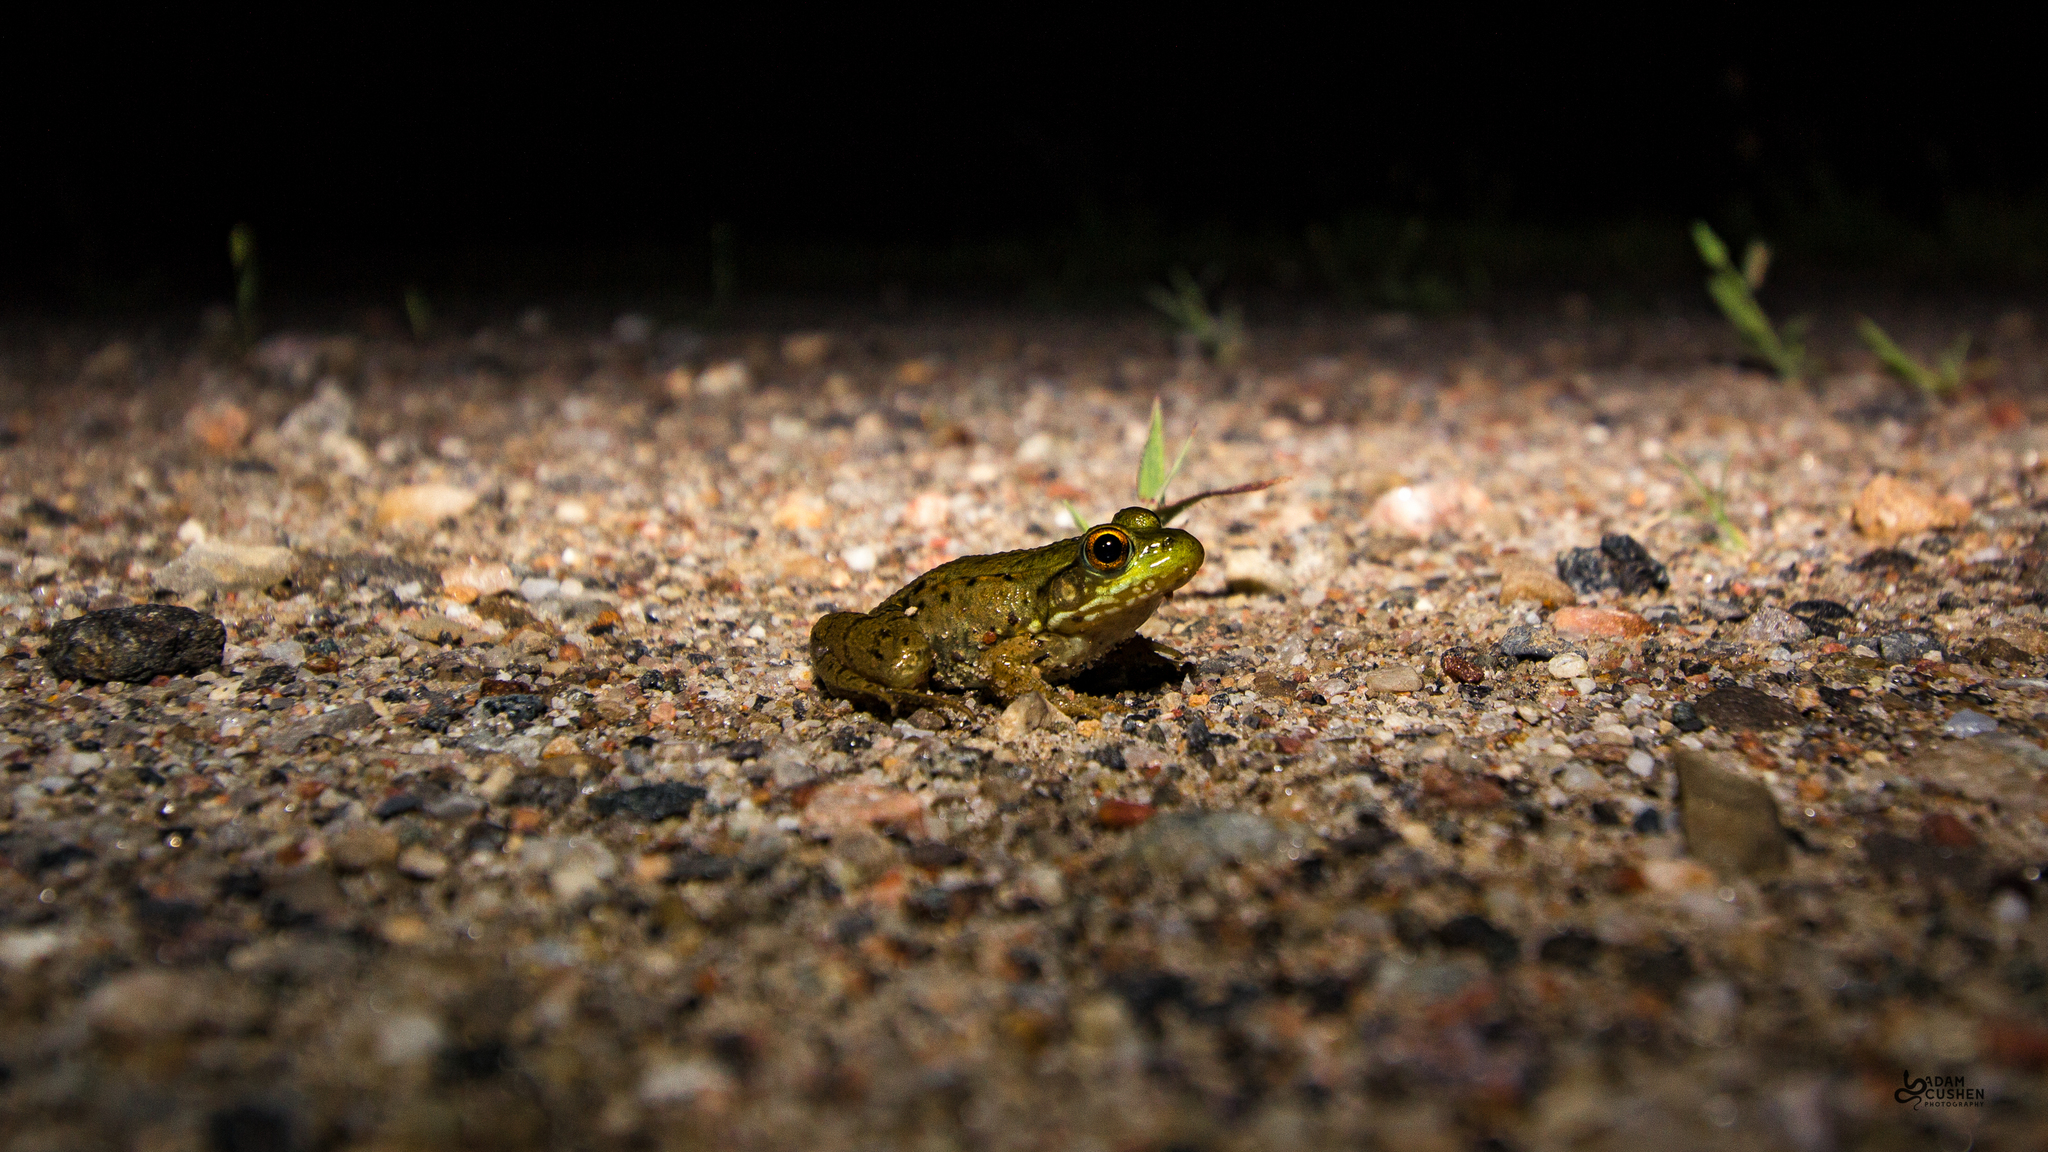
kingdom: Animalia
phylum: Chordata
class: Amphibia
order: Anura
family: Ranidae
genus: Lithobates
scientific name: Lithobates clamitans
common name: Green frog
